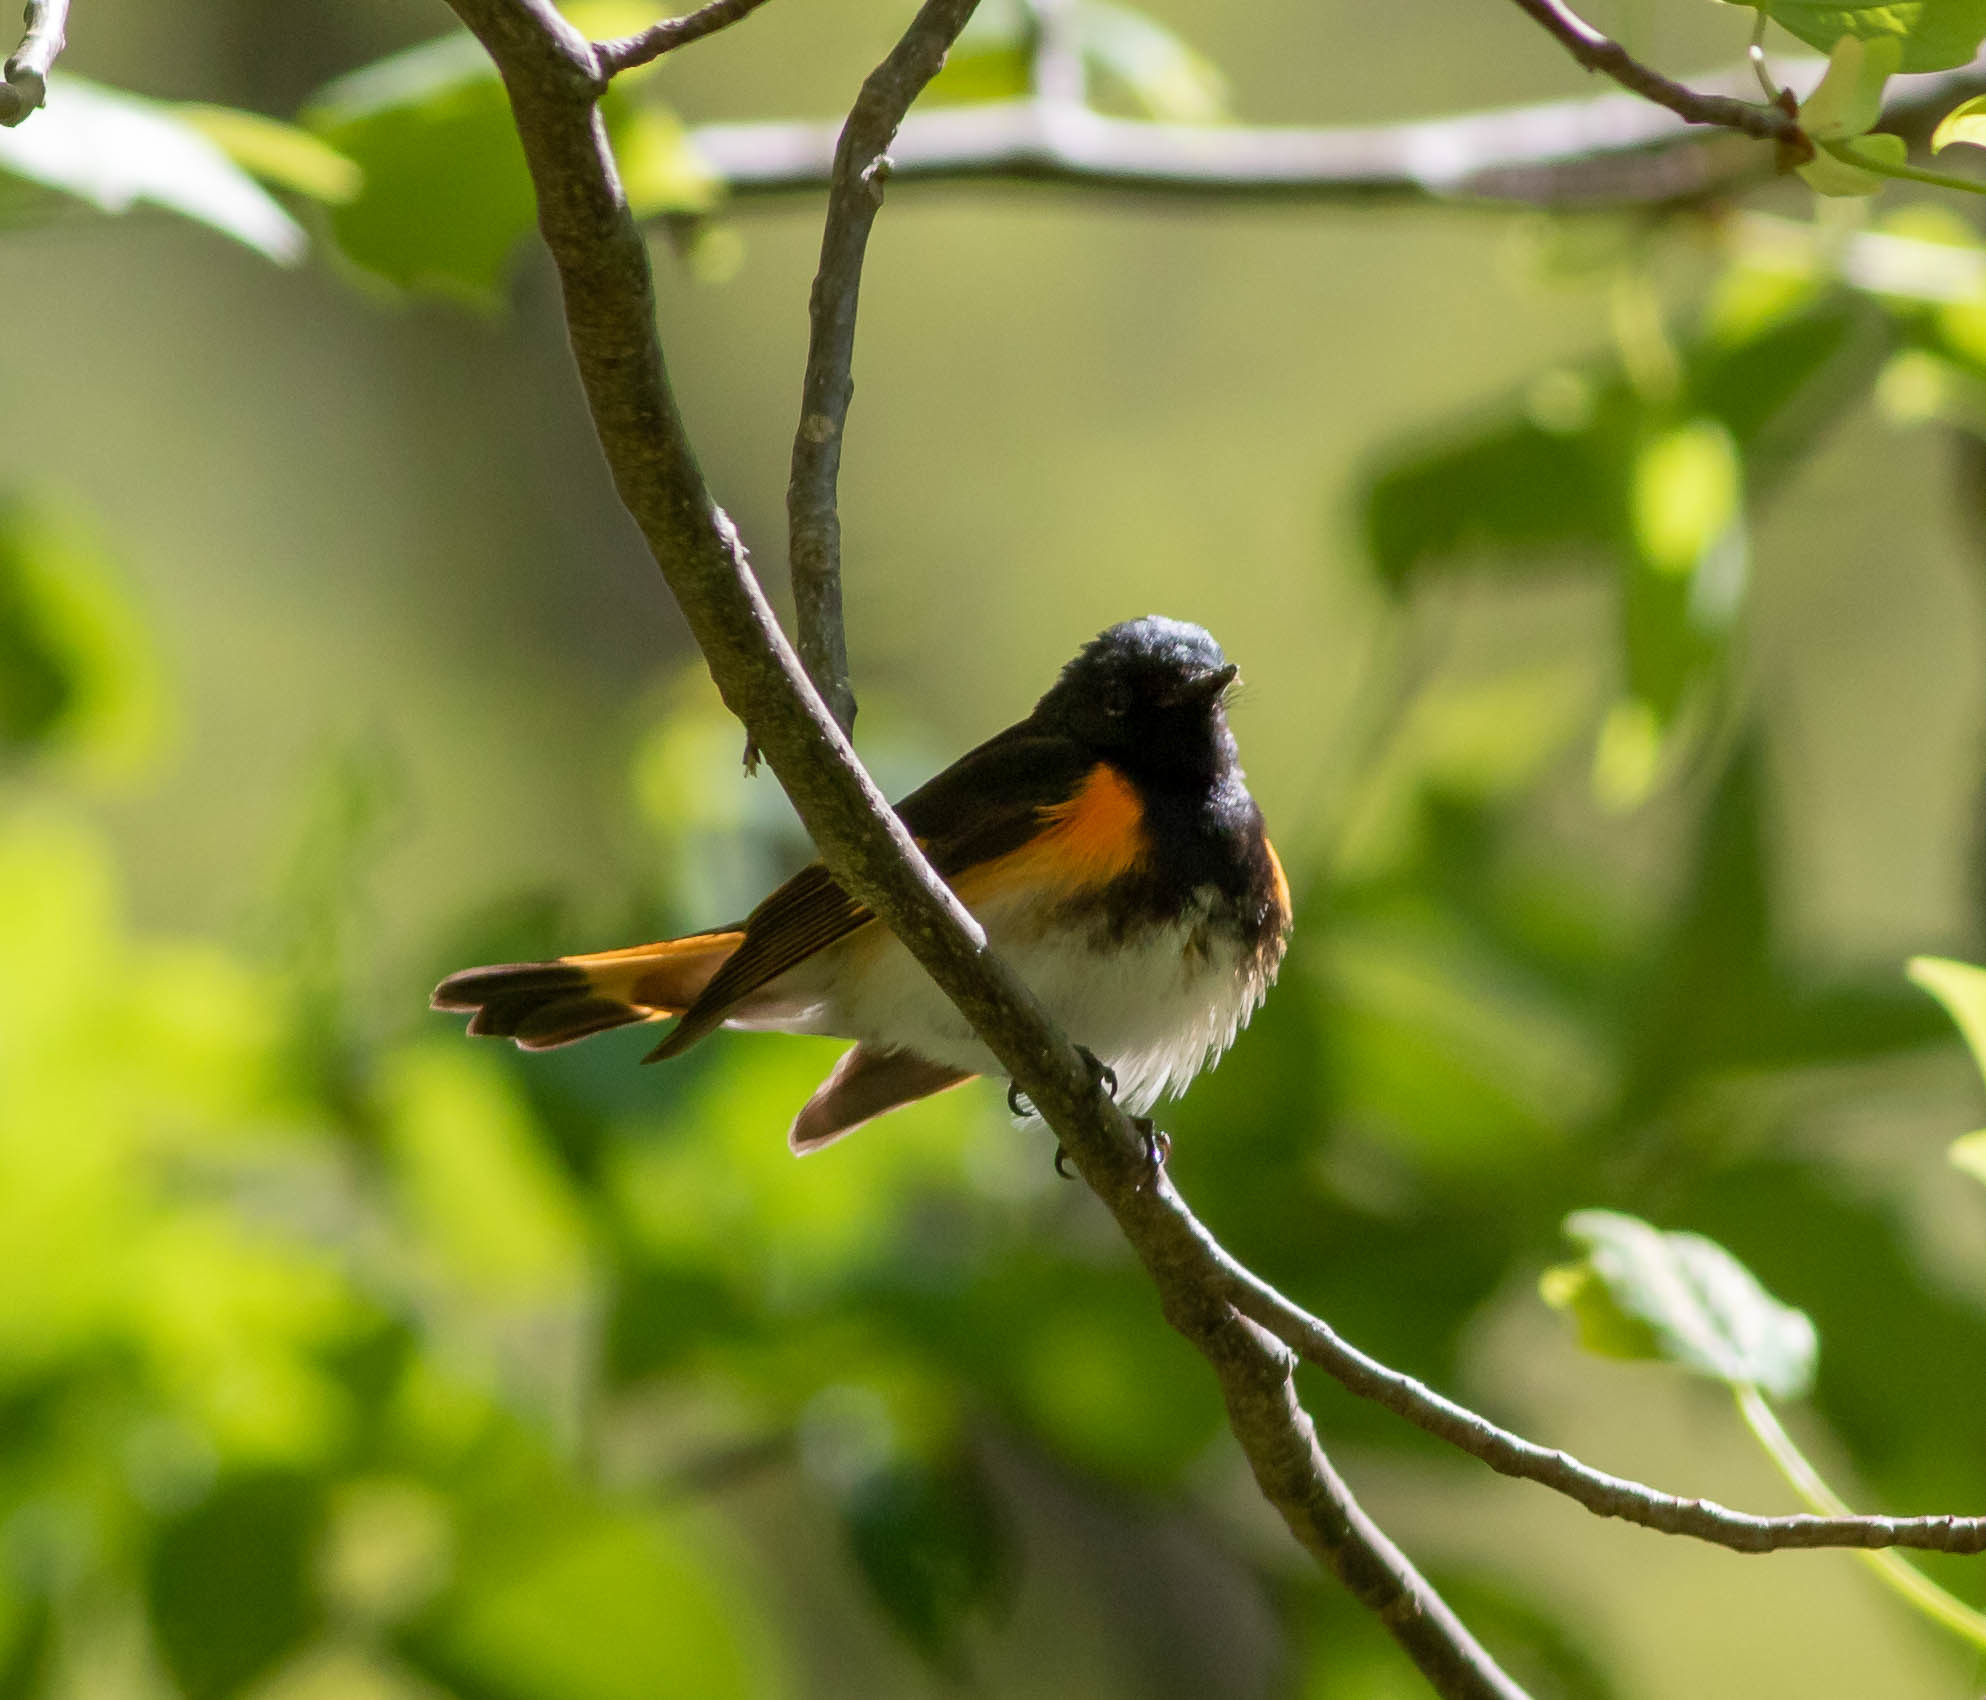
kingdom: Animalia
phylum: Chordata
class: Aves
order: Passeriformes
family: Parulidae
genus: Setophaga
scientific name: Setophaga ruticilla
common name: American redstart
